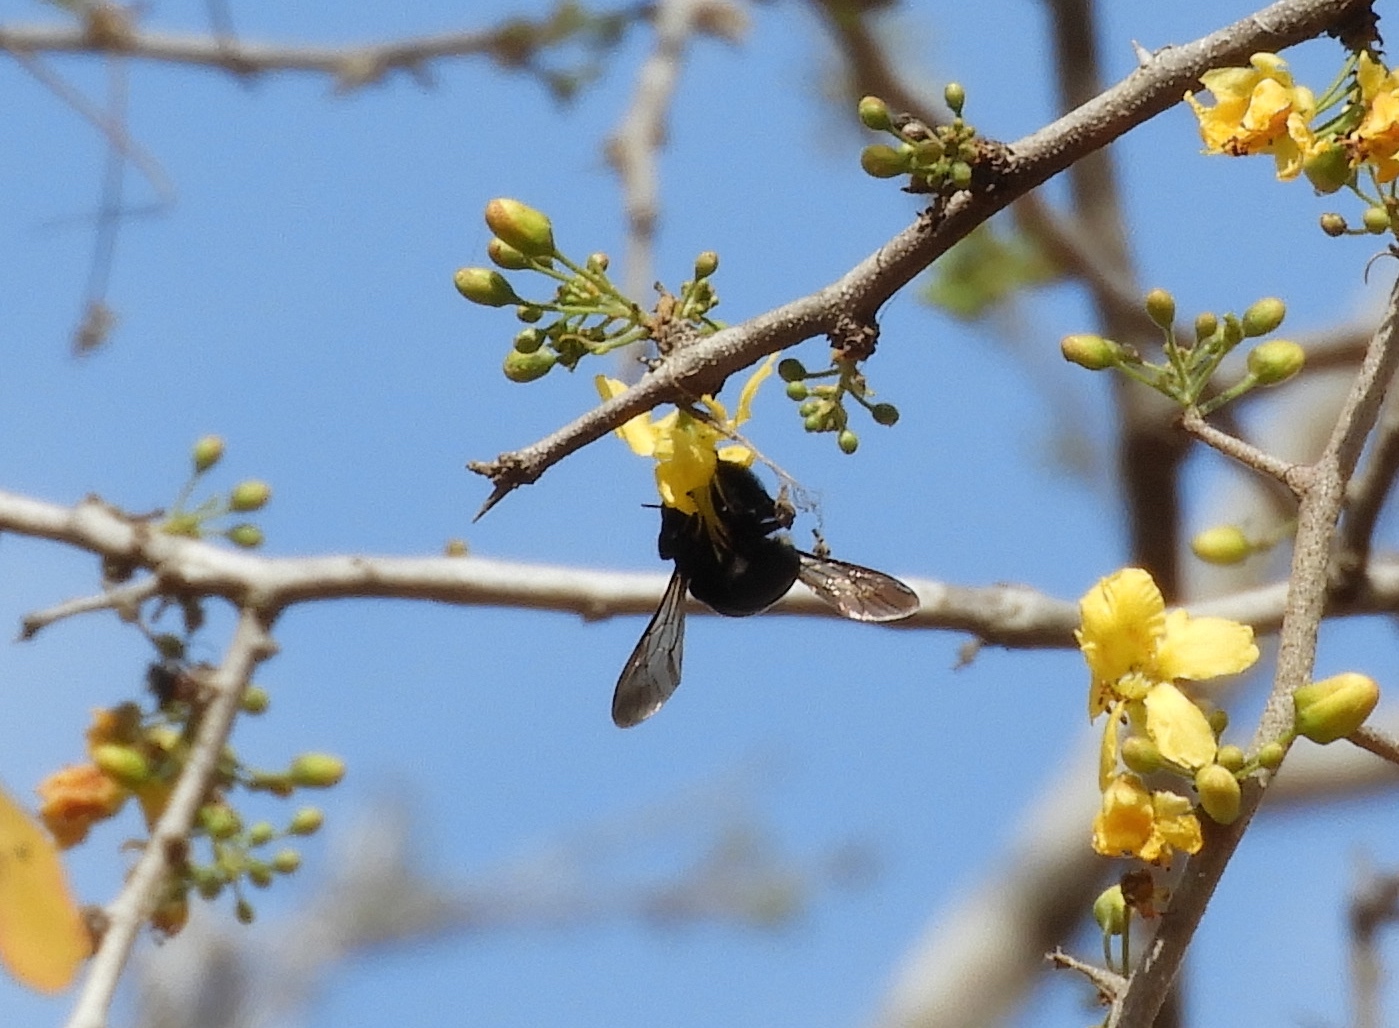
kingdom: Animalia
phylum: Arthropoda
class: Insecta
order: Hymenoptera
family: Apidae
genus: Xylocopa
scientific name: Xylocopa muscaria
